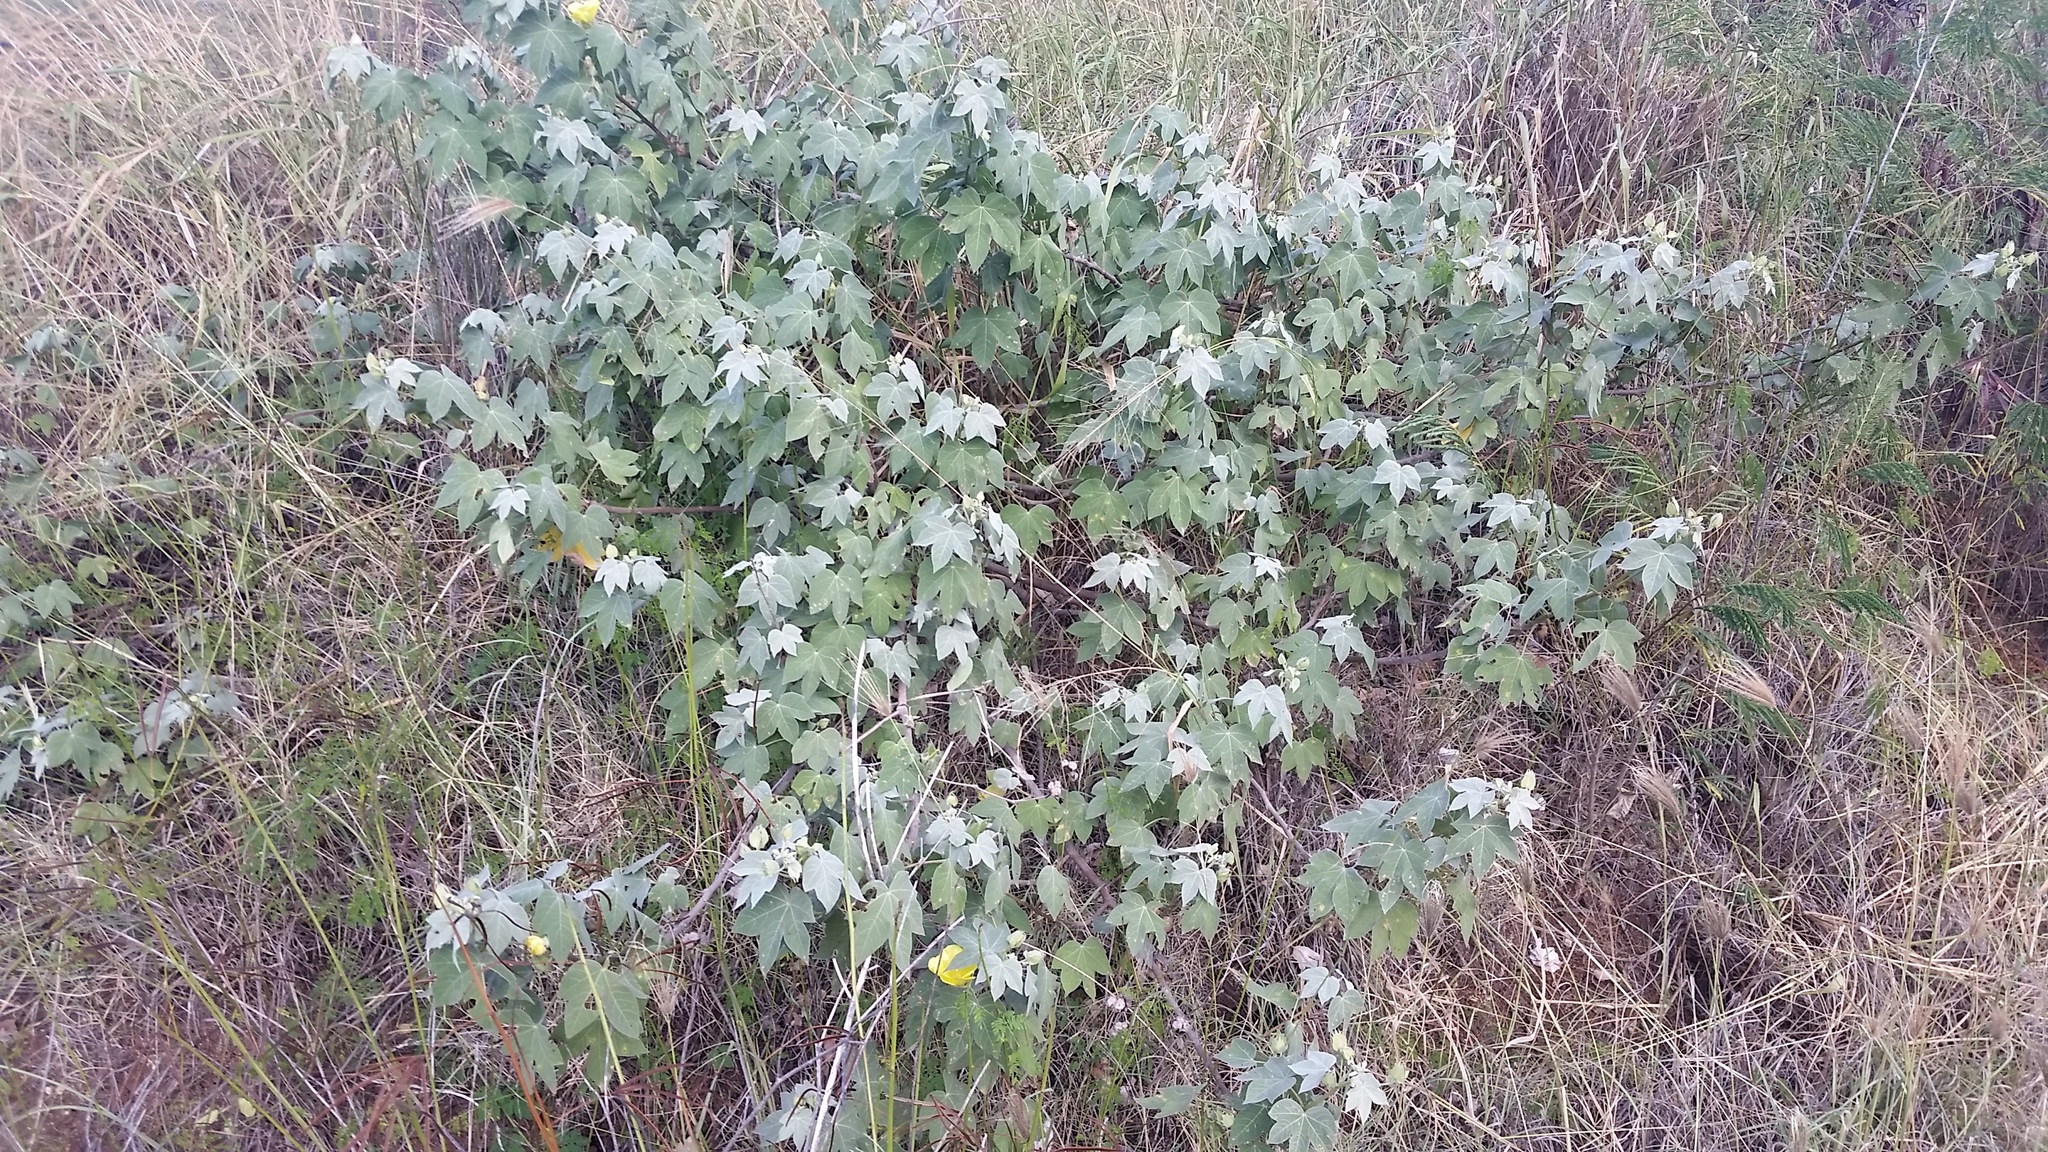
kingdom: Plantae
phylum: Tracheophyta
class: Magnoliopsida
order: Malvales
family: Malvaceae
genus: Gossypium
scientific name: Gossypium tomentosum
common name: Hawaiian cotton
